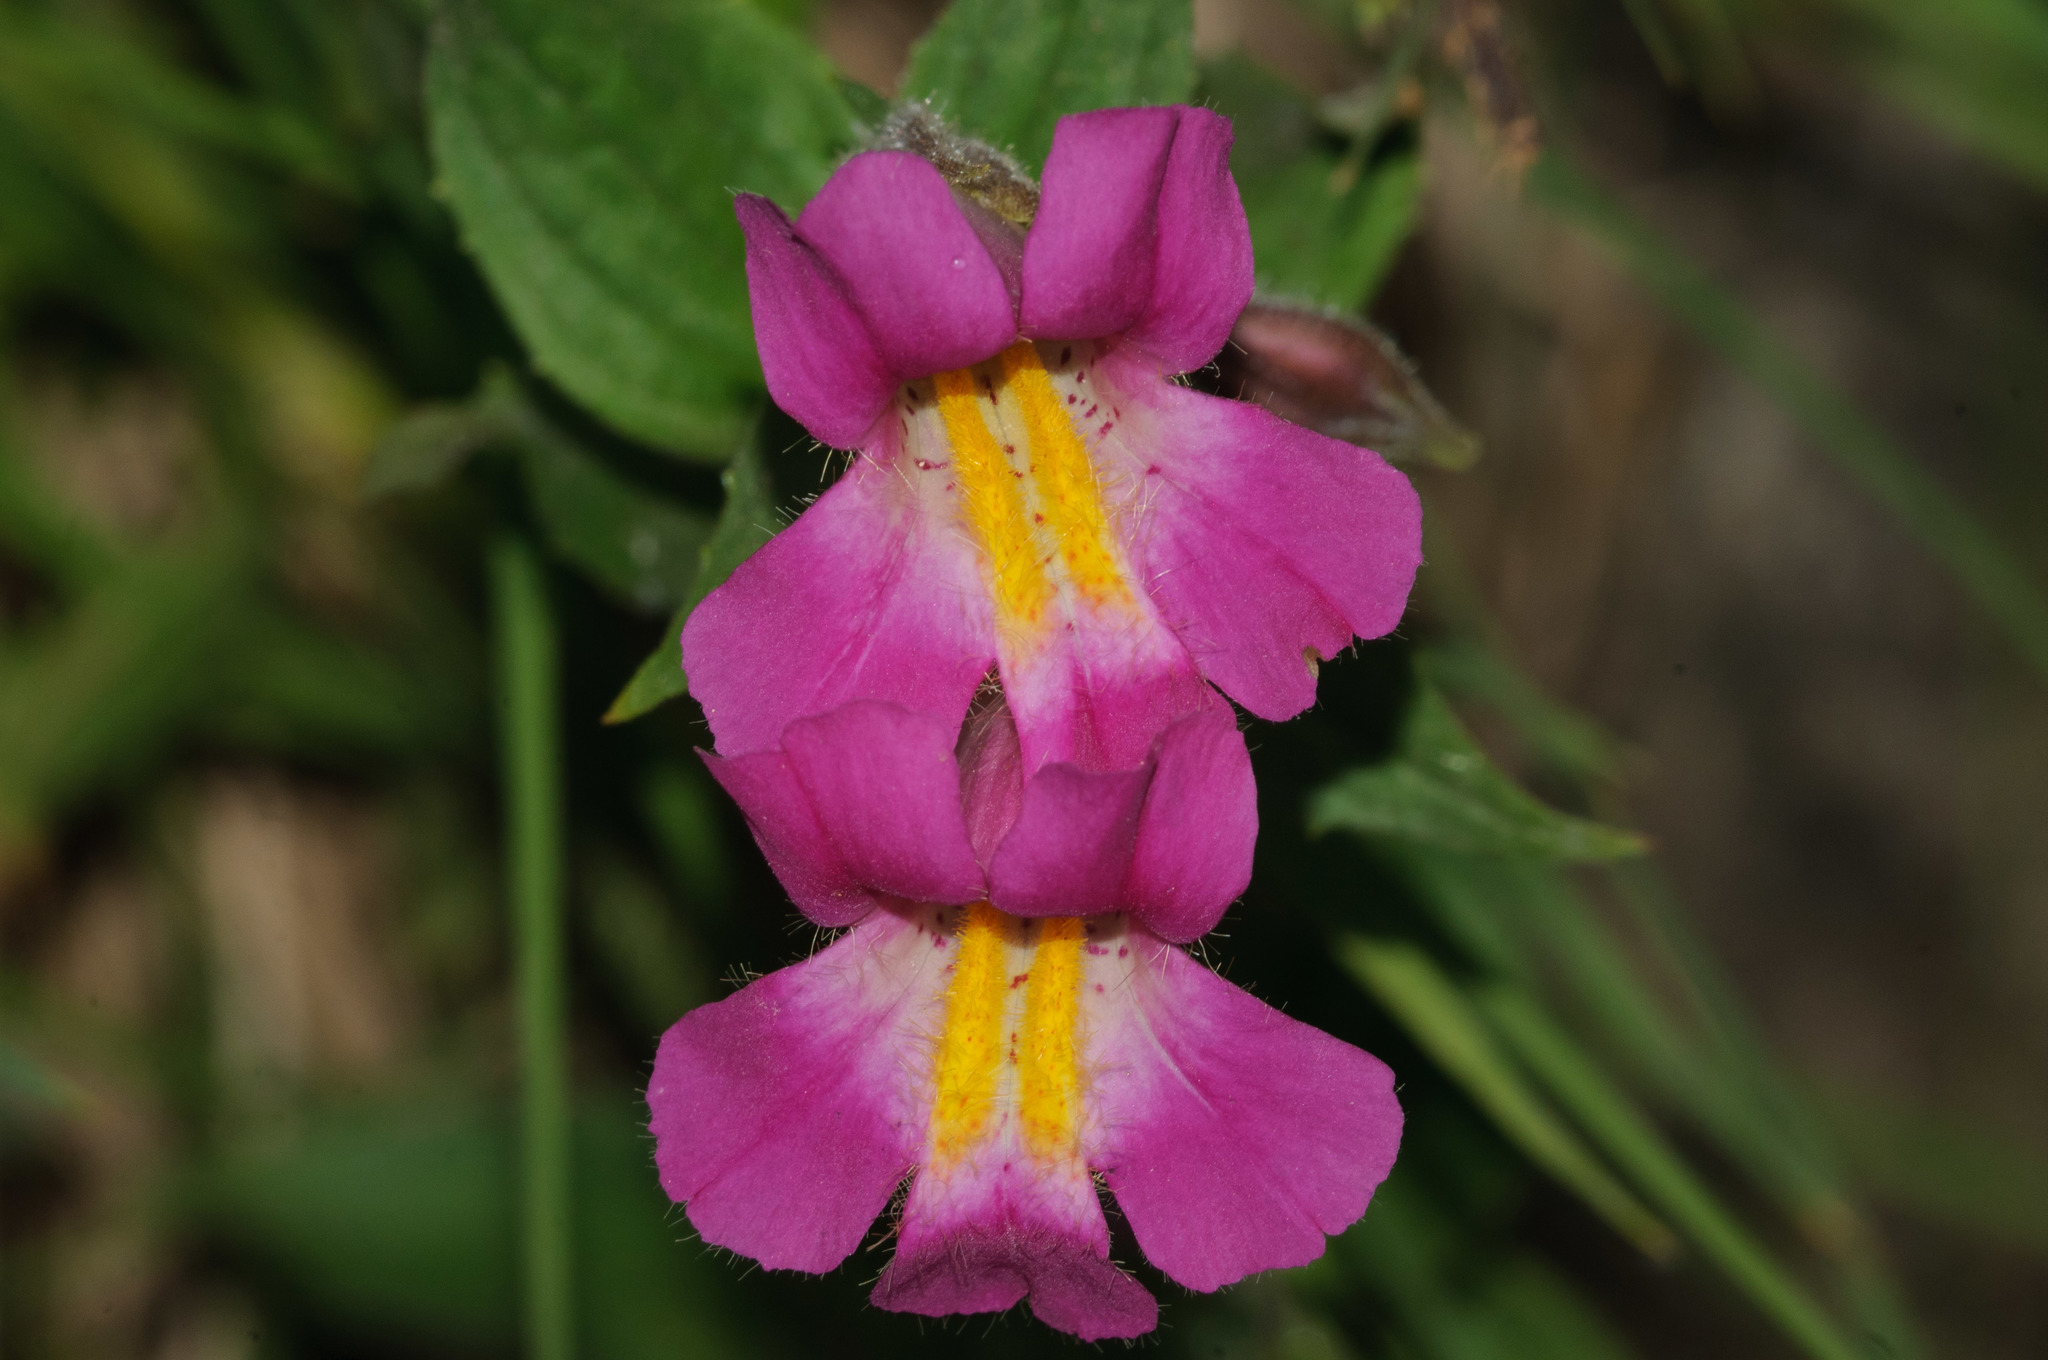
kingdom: Plantae
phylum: Tracheophyta
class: Magnoliopsida
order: Lamiales
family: Phrymaceae
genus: Erythranthe
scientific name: Erythranthe lewisii
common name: Lewis's monkey-flower
